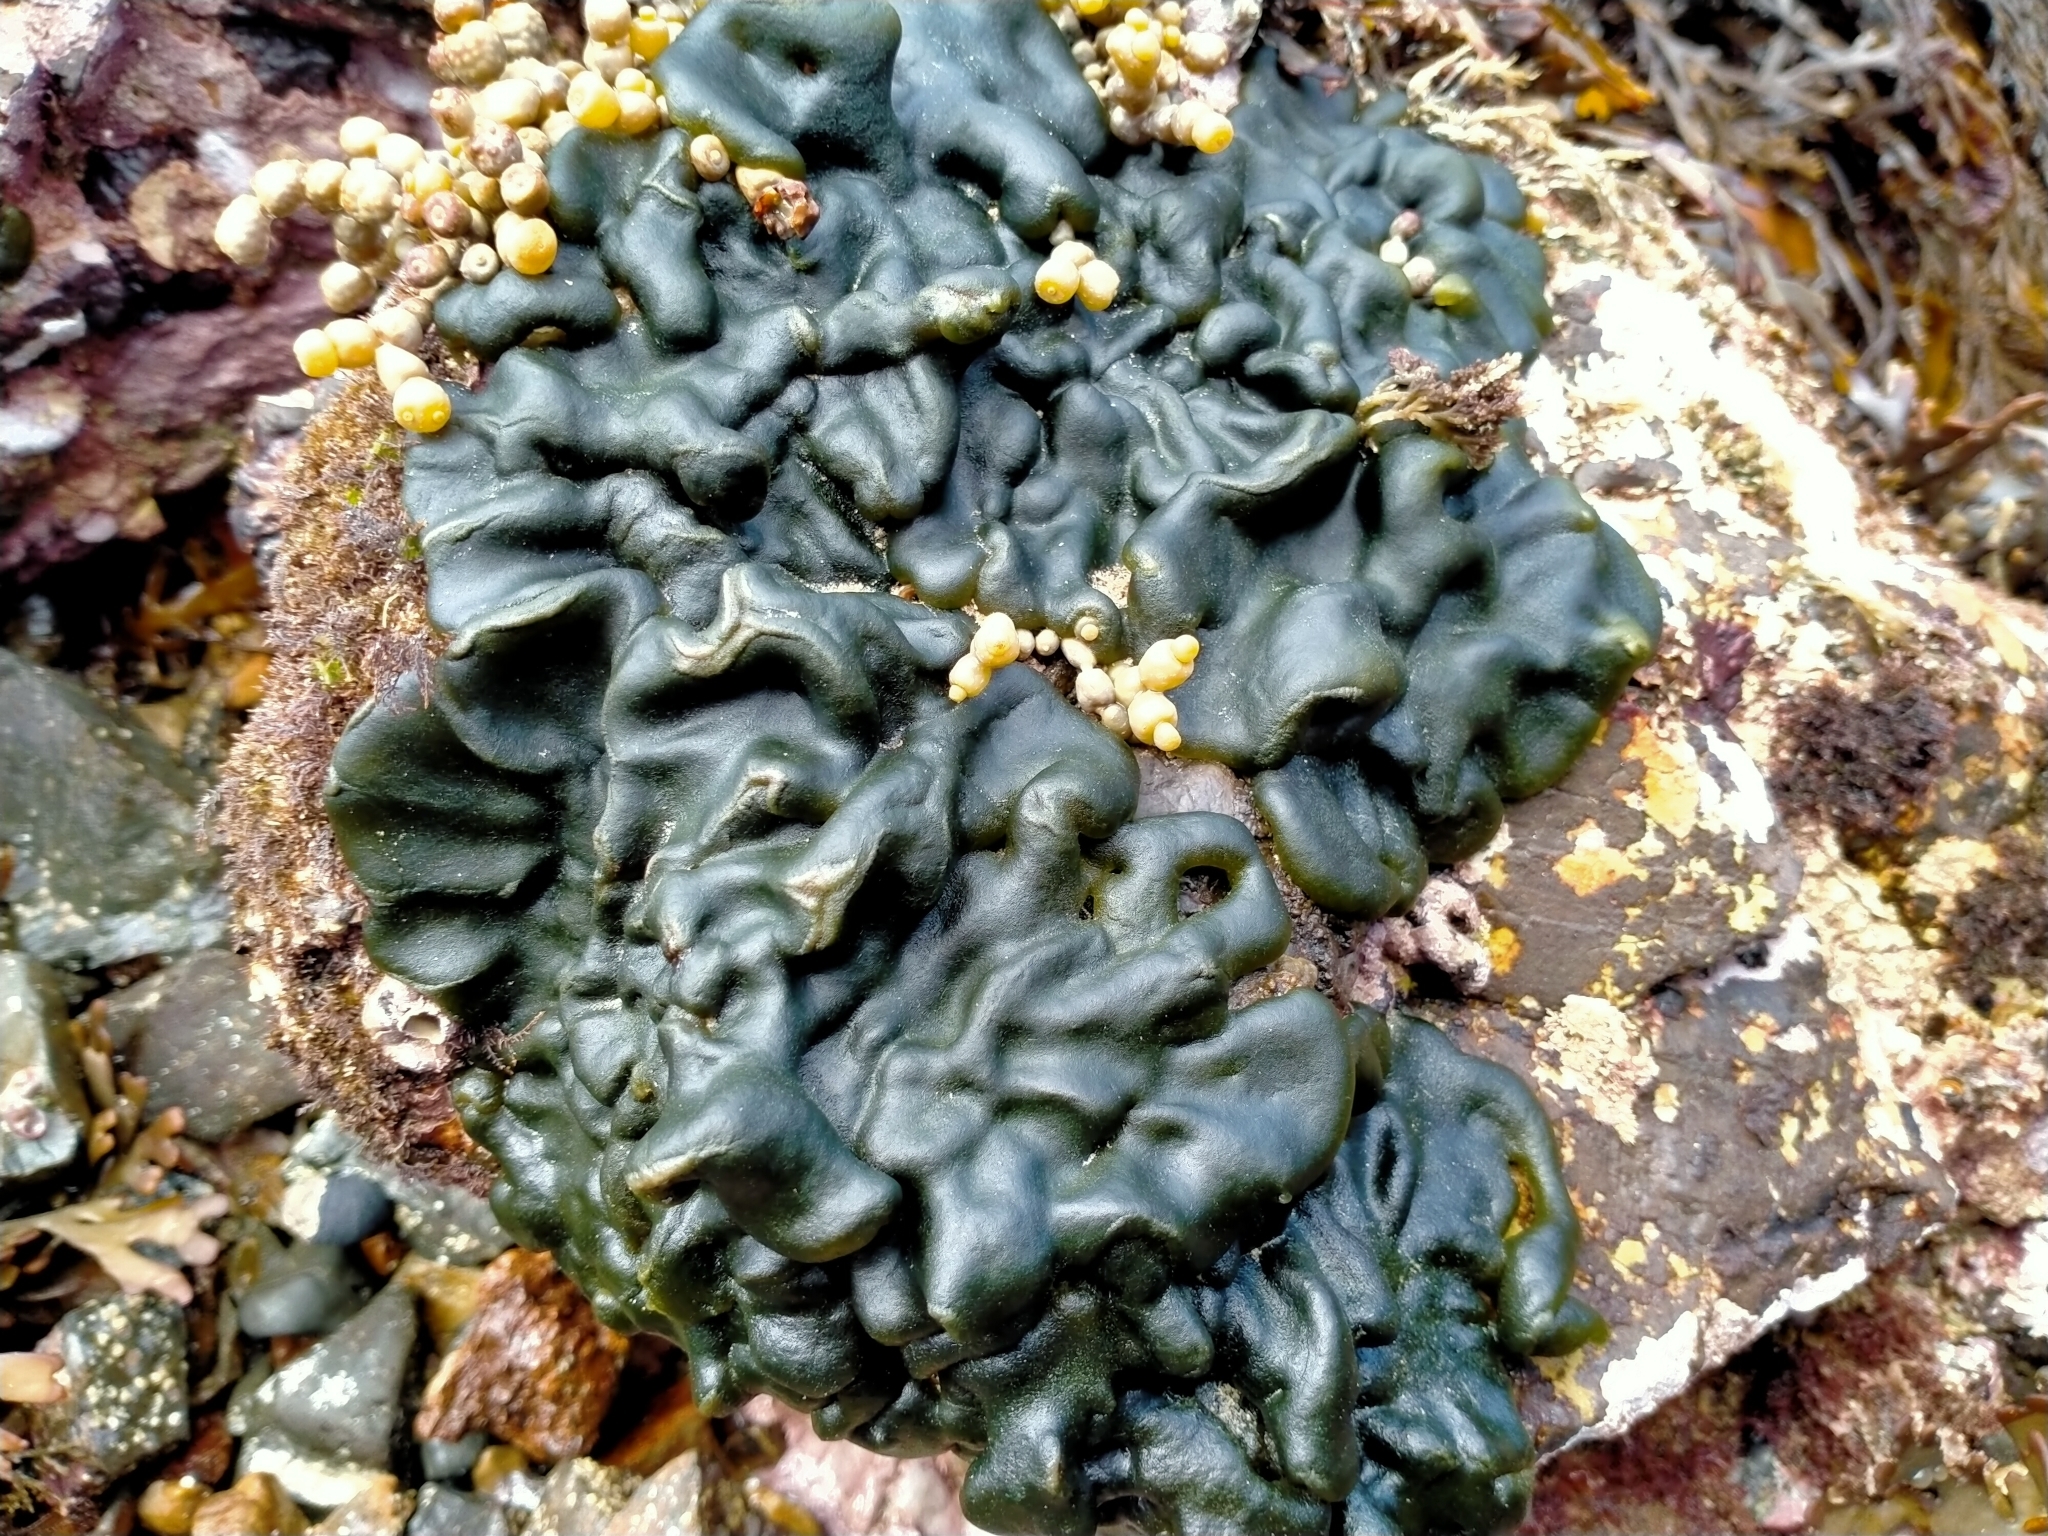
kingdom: Plantae
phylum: Chlorophyta
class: Ulvophyceae
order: Bryopsidales
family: Codiaceae
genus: Codium
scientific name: Codium convolutum
